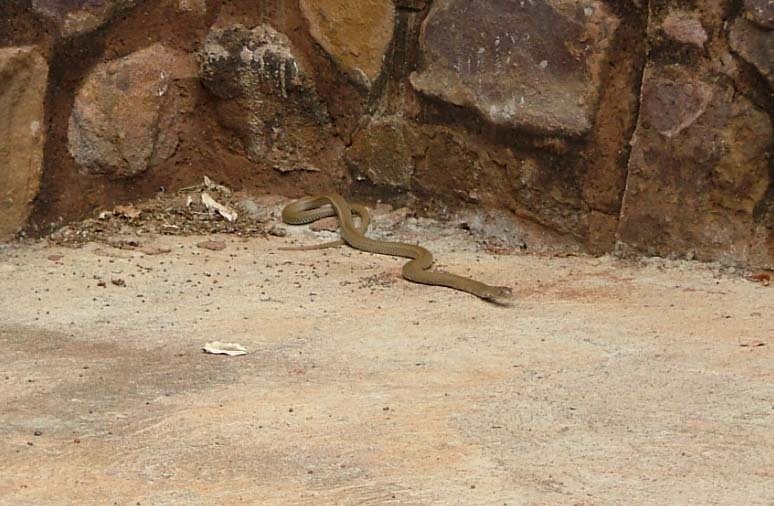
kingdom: Animalia
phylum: Chordata
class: Squamata
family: Elapidae
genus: Naja
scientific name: Naja mossambica
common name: Mozambique spitting cobra
